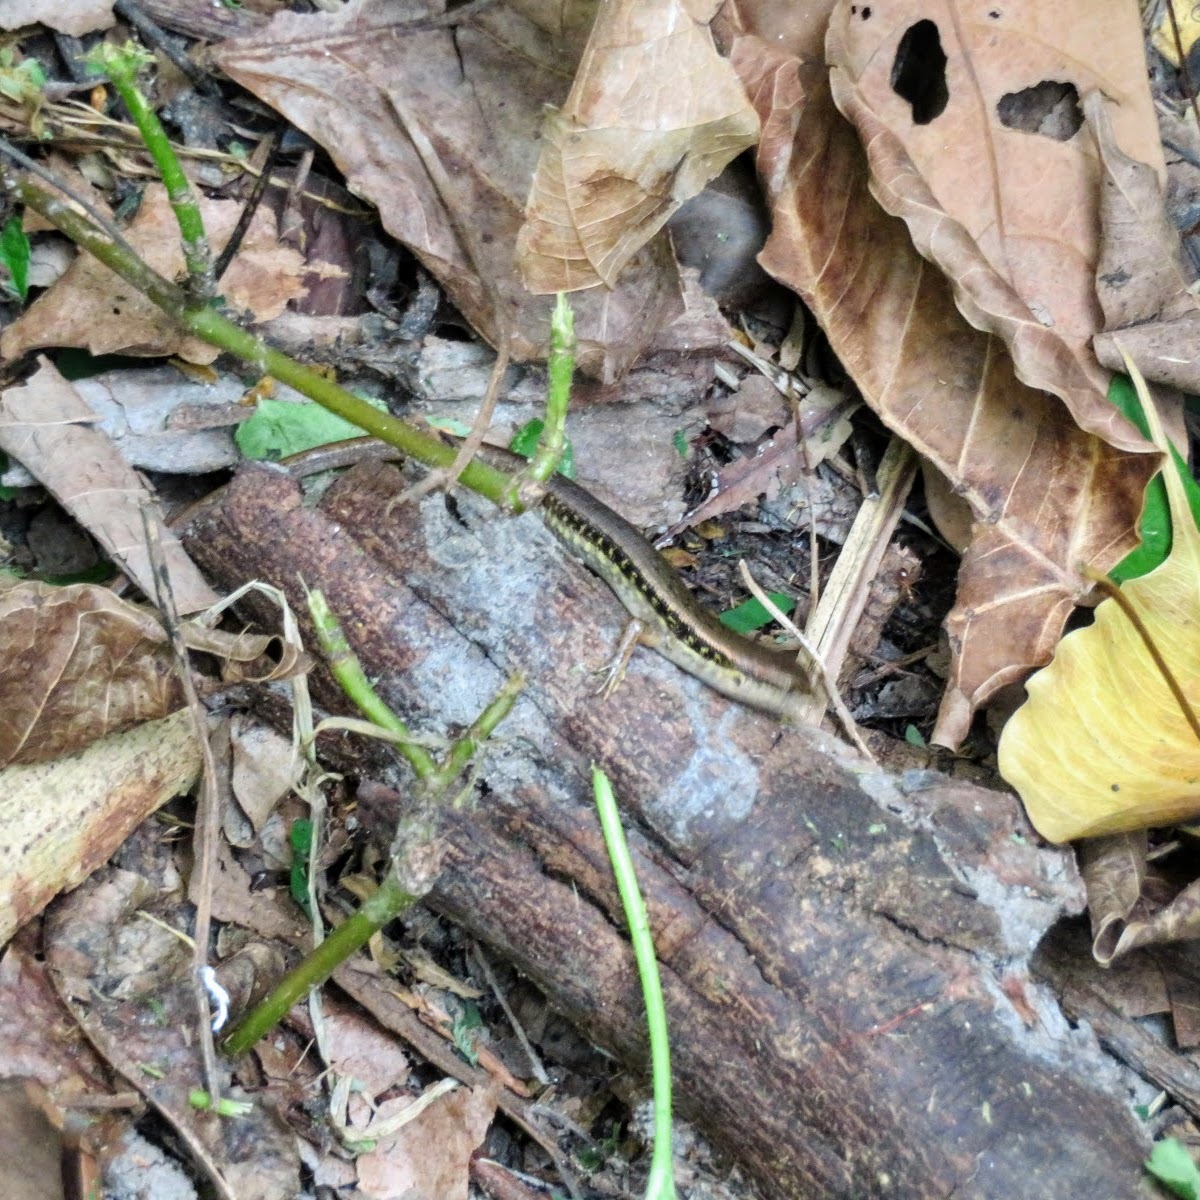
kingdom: Animalia
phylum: Chordata
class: Squamata
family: Scincidae
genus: Sphenomorphus
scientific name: Sphenomorphus maculatus
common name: Maculated forest skink
